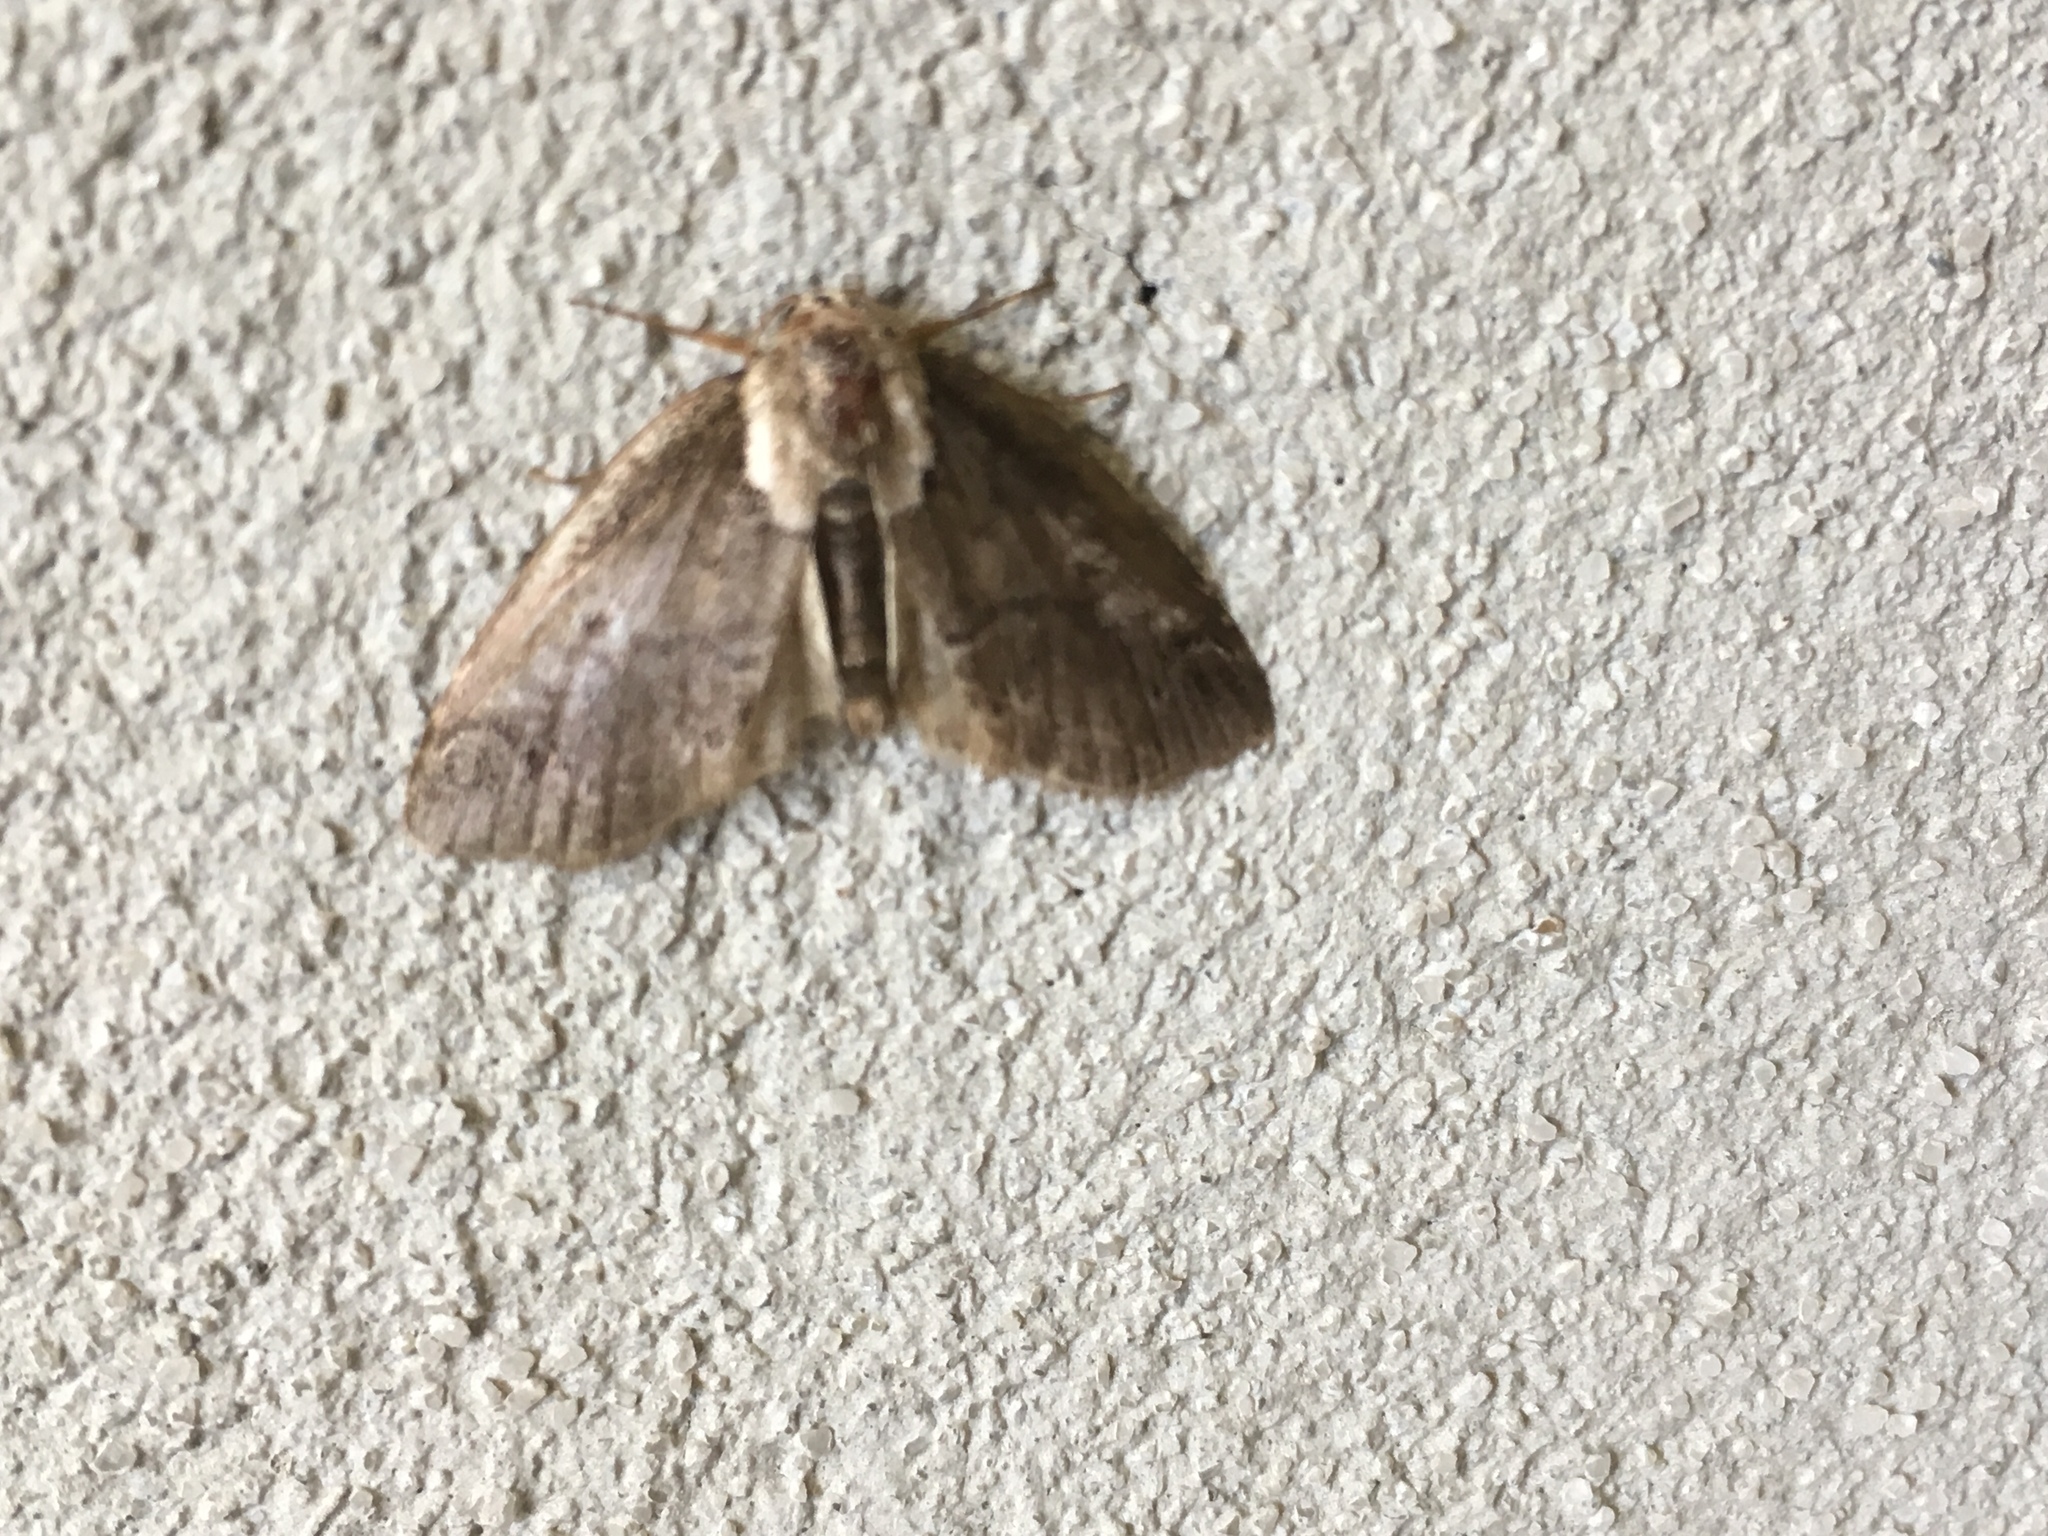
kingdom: Animalia
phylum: Arthropoda
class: Insecta
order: Lepidoptera
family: Nolidae
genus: Baileya
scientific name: Baileya ophthalmica
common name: Eyed baileya moth
